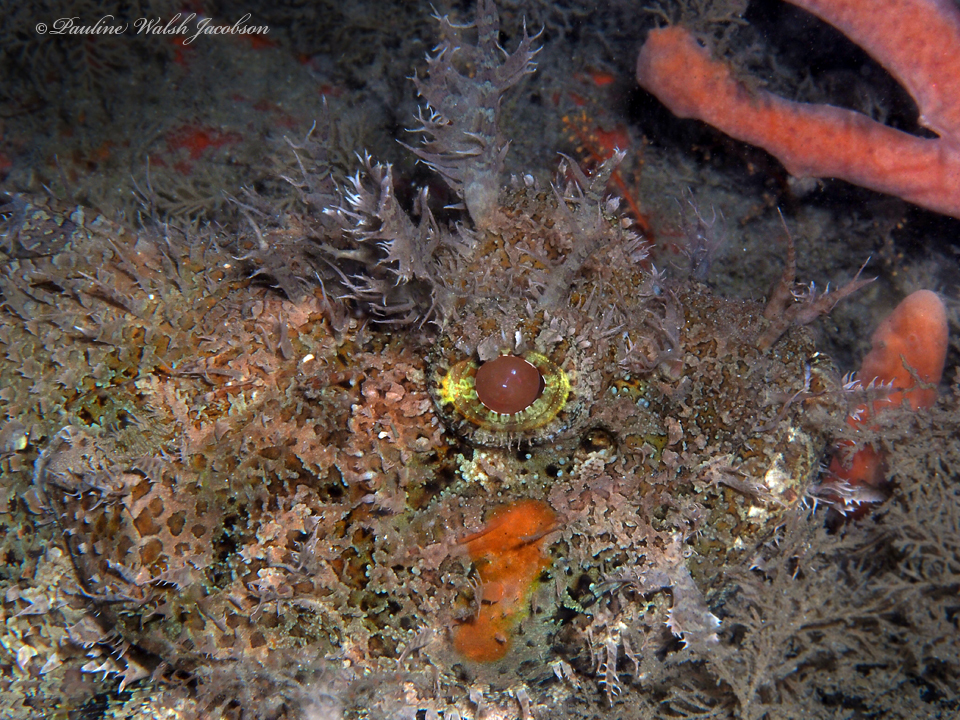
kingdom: Animalia
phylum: Chordata
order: Scorpaeniformes
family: Scorpaenidae
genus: Scorpaena
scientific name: Scorpaena plumieri
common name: Spotted scorpionfish
